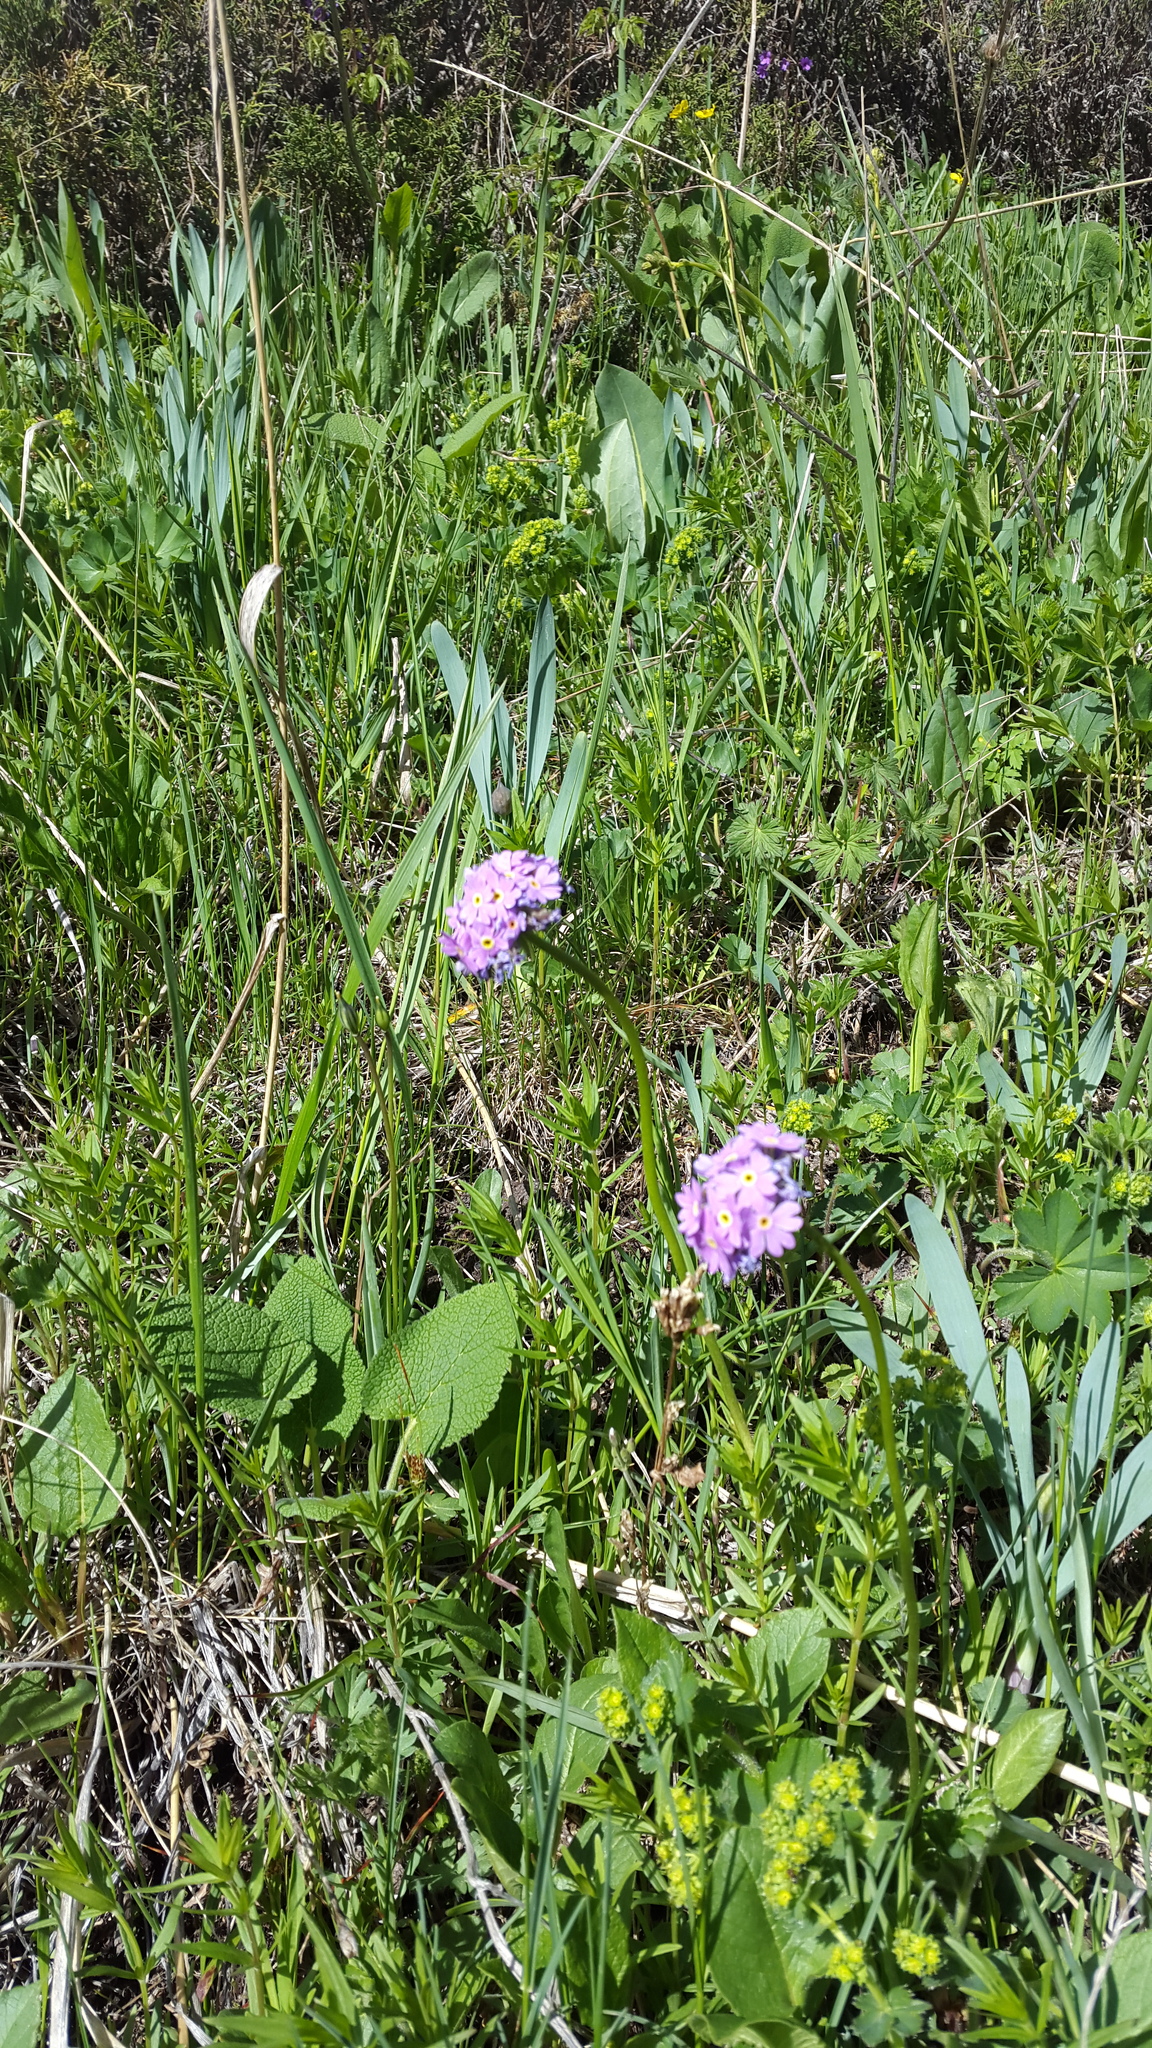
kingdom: Plantae
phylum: Tracheophyta
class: Magnoliopsida
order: Ericales
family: Primulaceae
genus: Primula
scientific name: Primula algida
